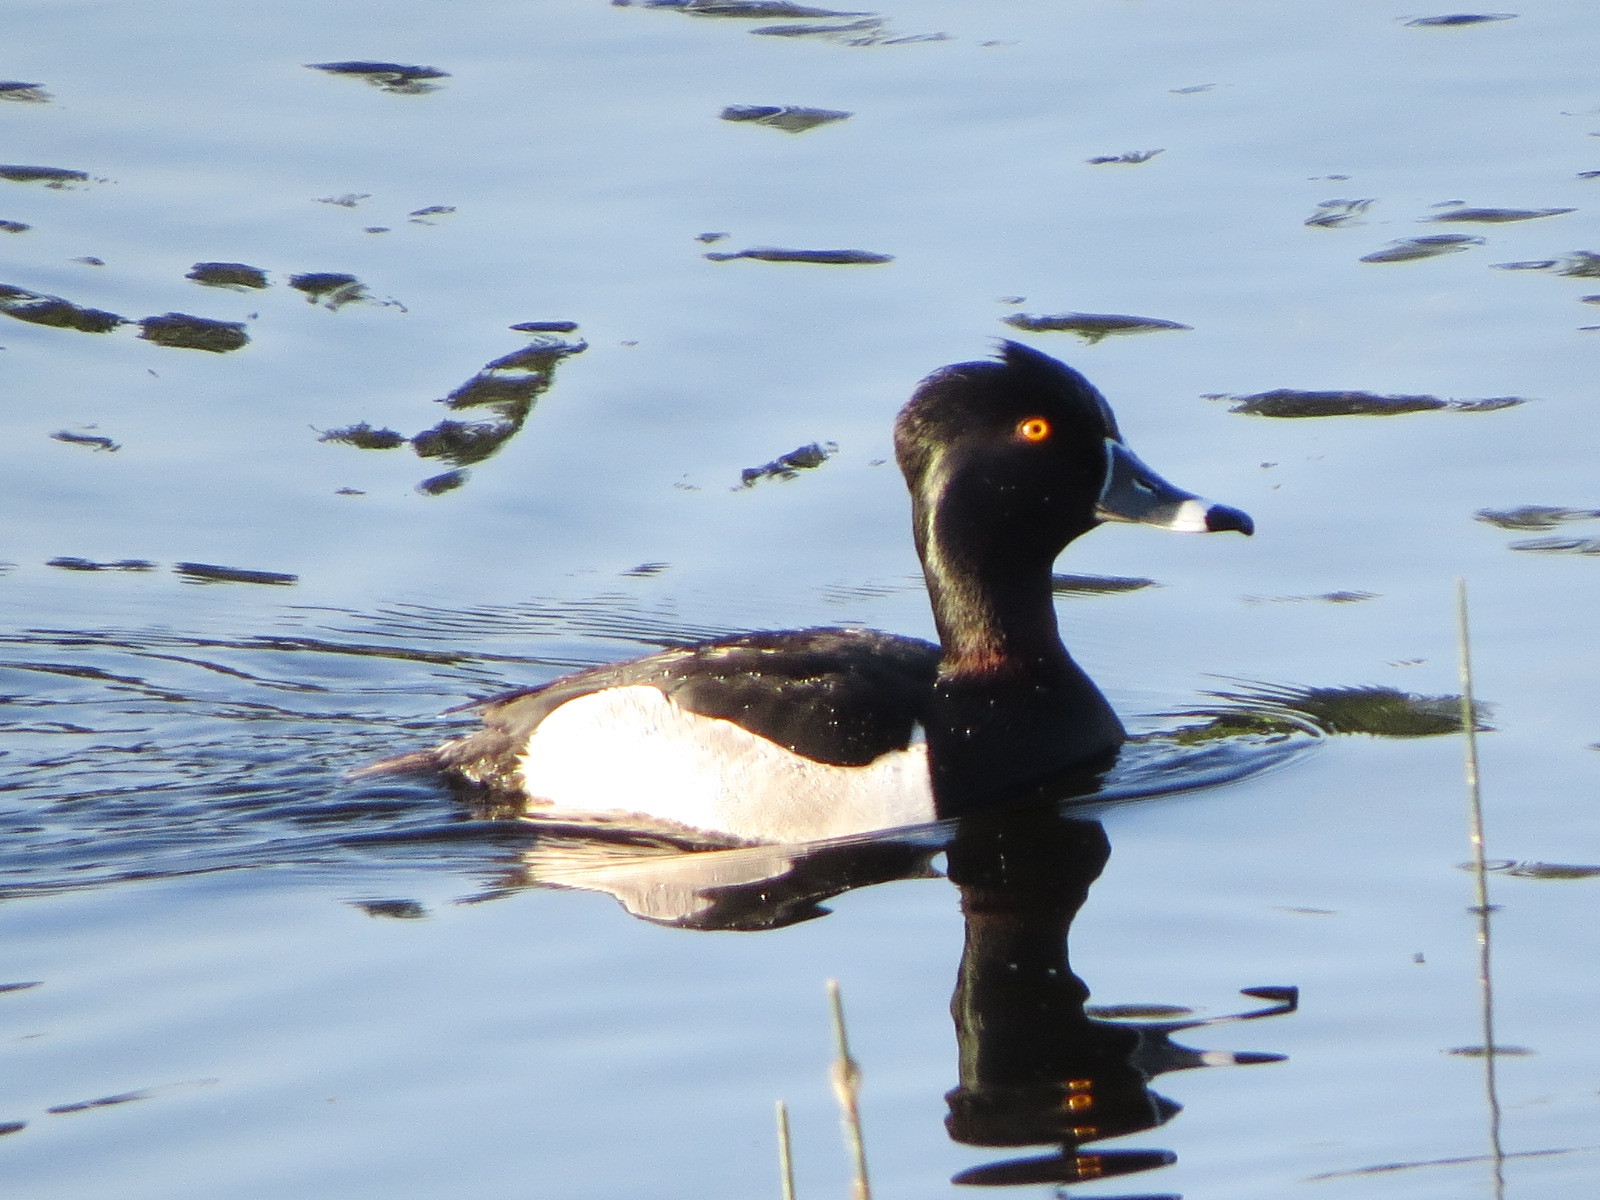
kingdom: Animalia
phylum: Chordata
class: Aves
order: Anseriformes
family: Anatidae
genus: Aythya
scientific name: Aythya collaris
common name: Ring-necked duck
